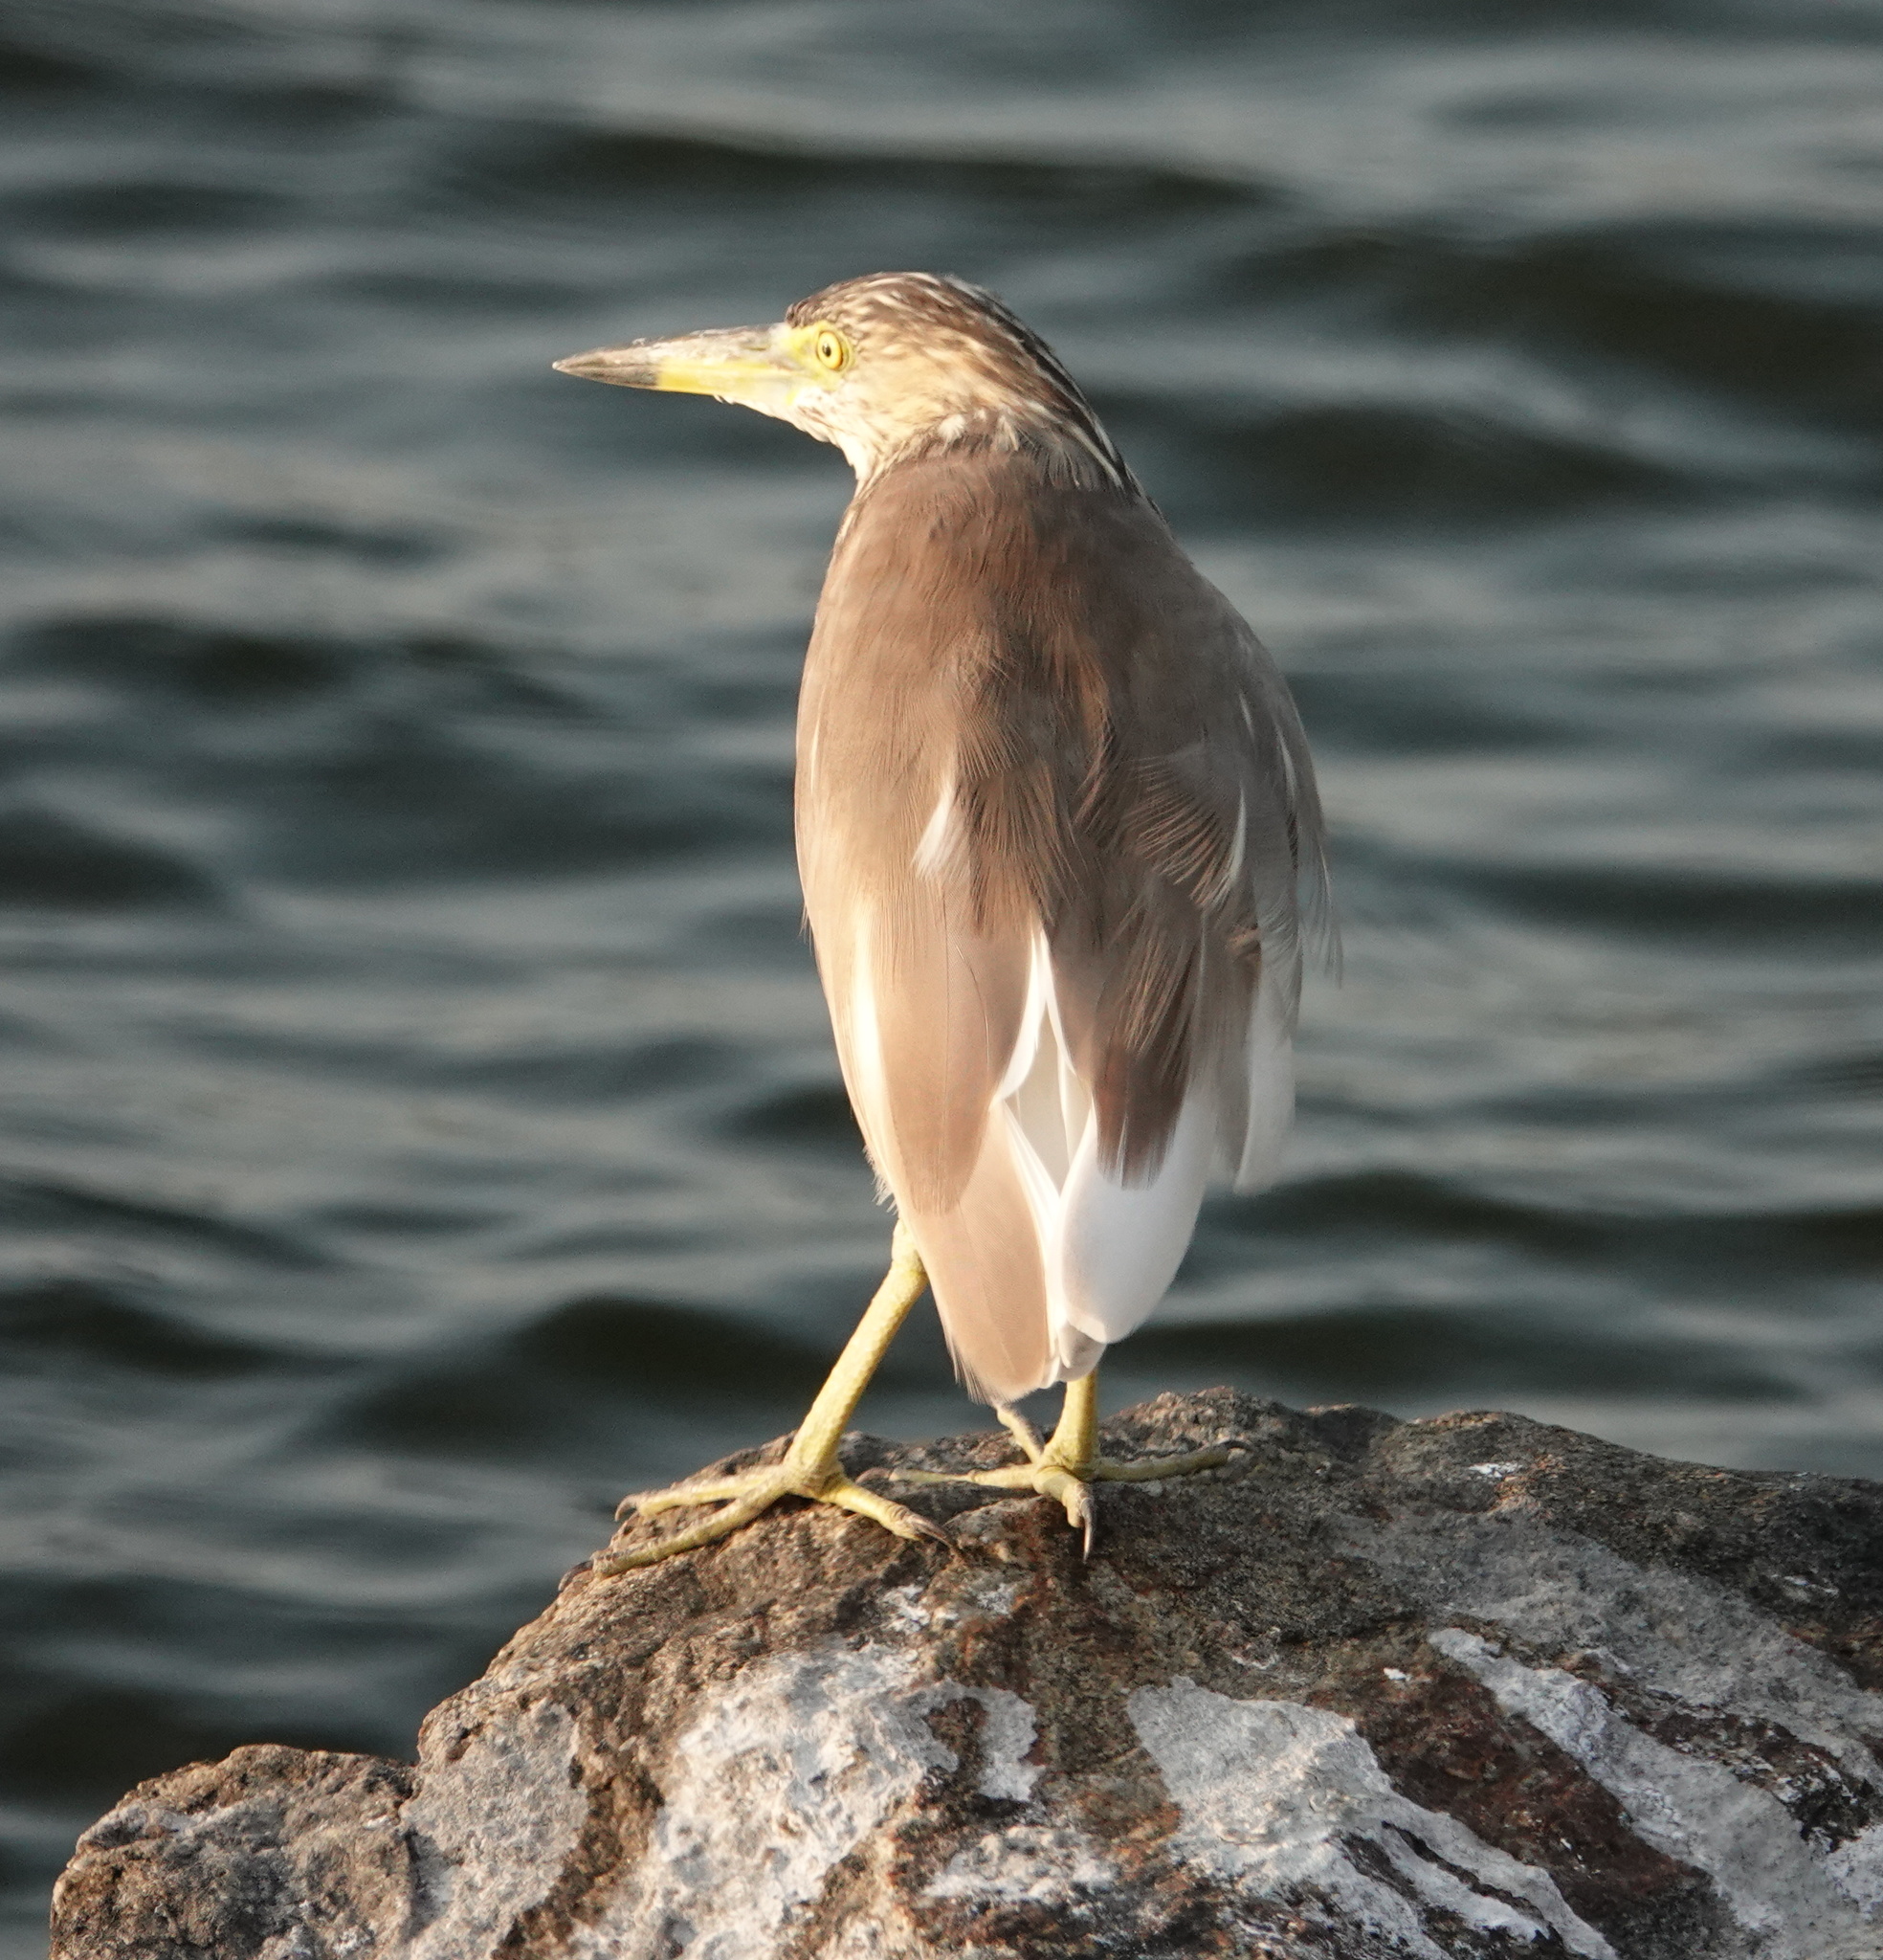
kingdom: Animalia
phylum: Chordata
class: Aves
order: Pelecaniformes
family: Ardeidae
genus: Ardeola
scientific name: Ardeola grayii
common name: Indian pond heron
